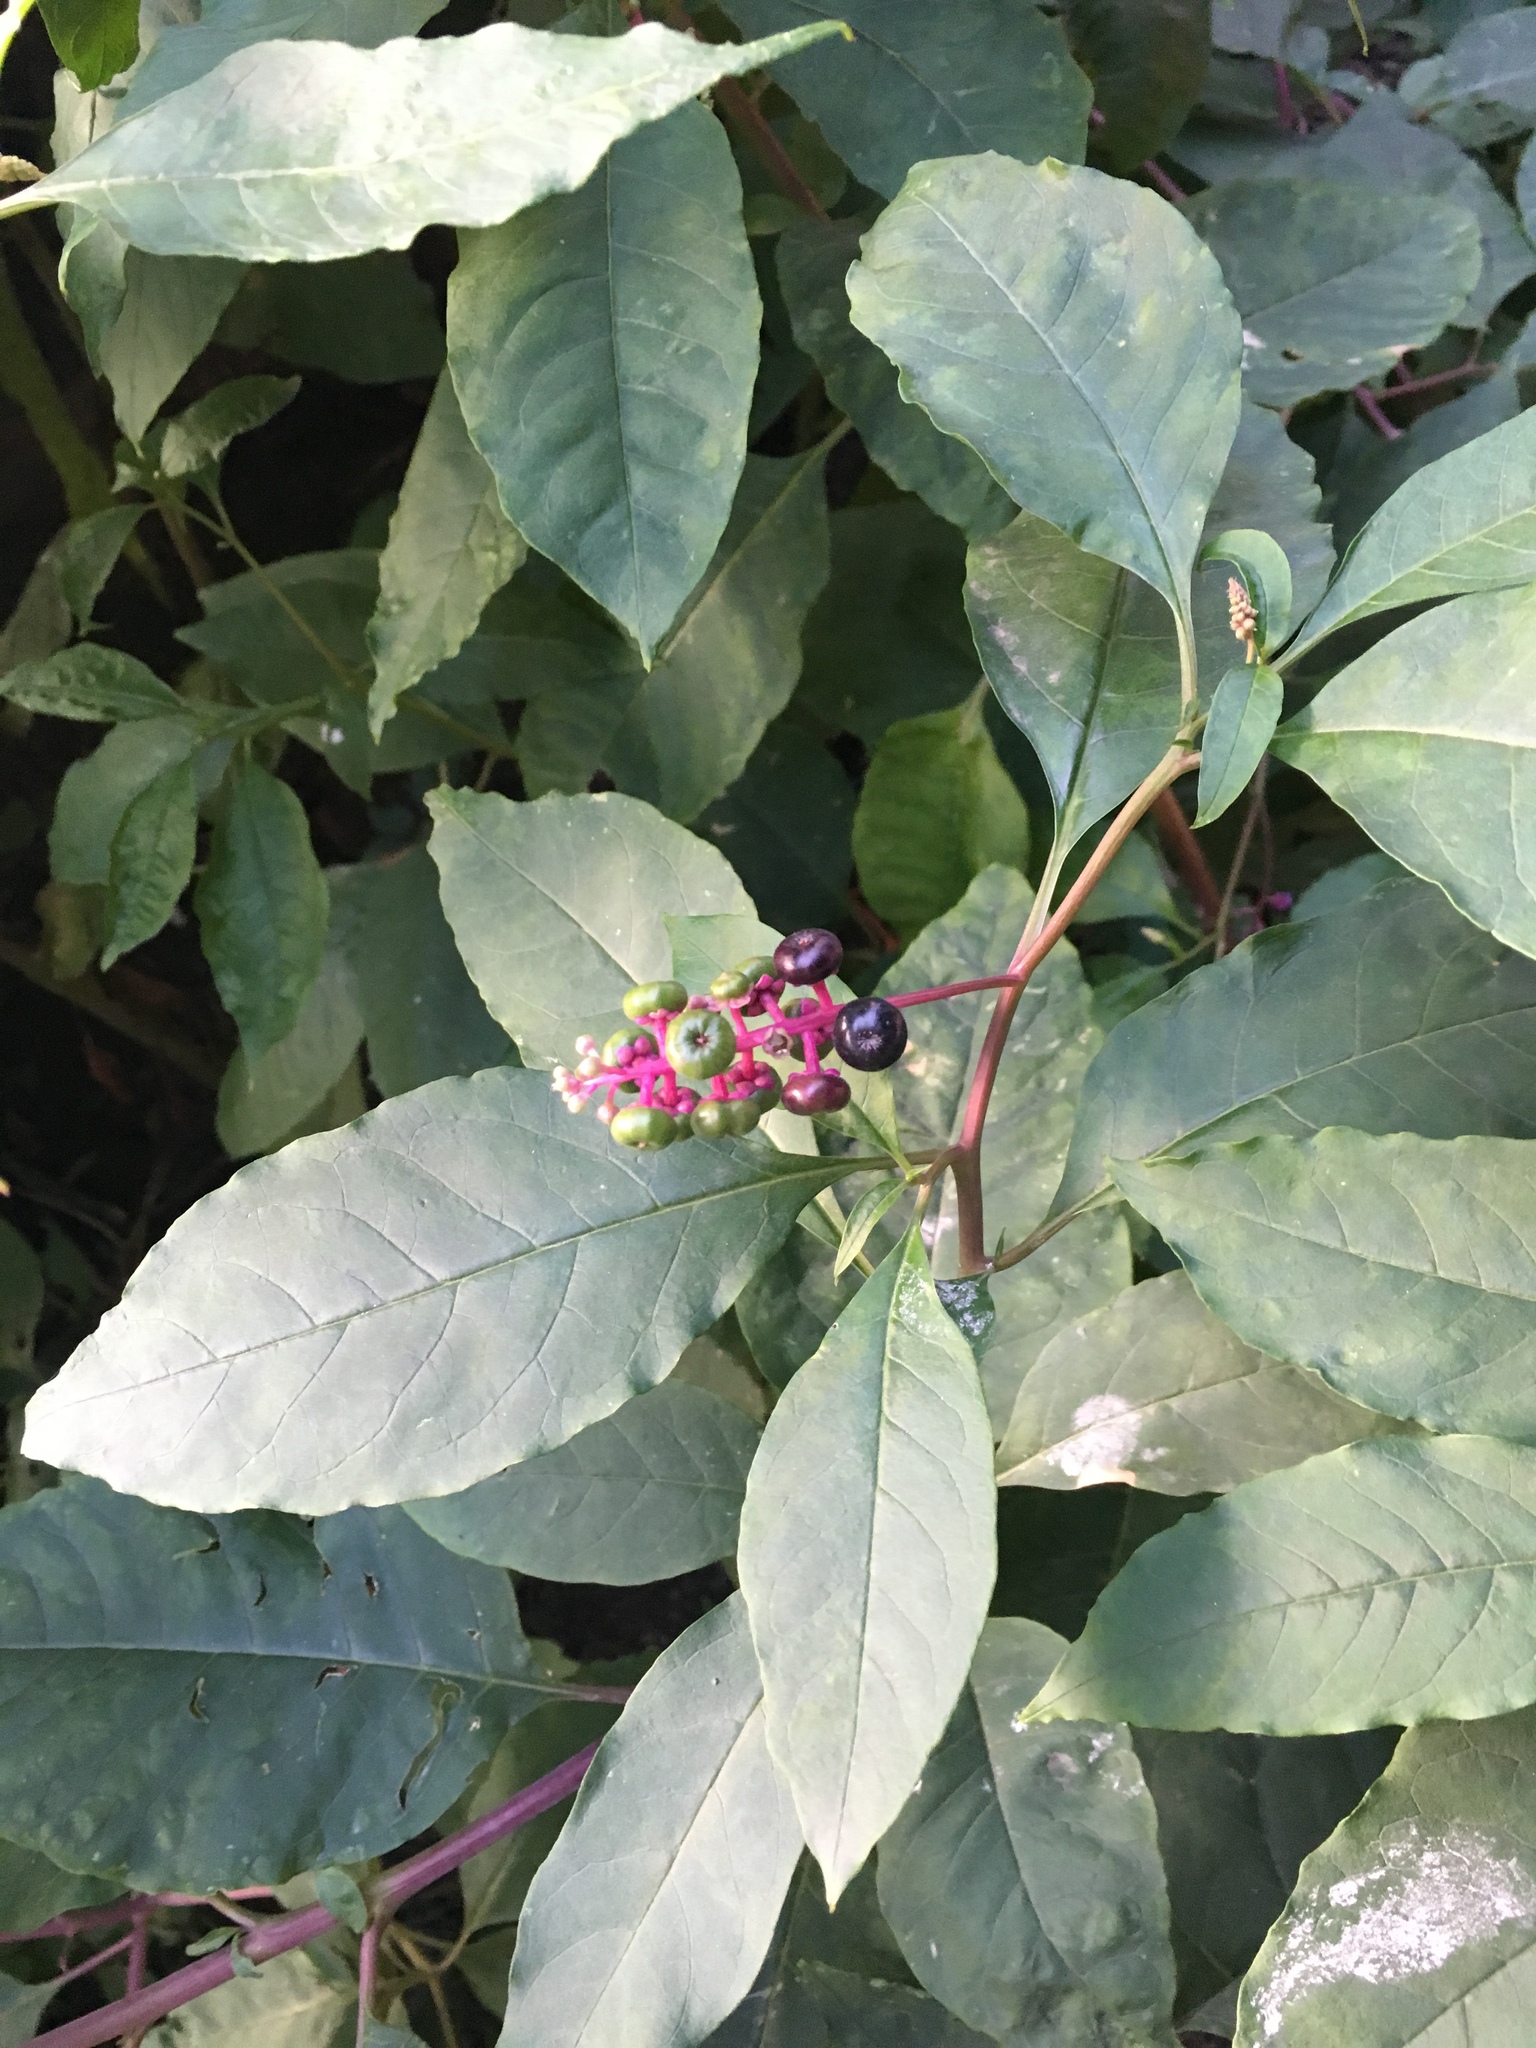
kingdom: Plantae
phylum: Tracheophyta
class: Magnoliopsida
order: Caryophyllales
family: Phytolaccaceae
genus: Phytolacca
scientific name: Phytolacca americana
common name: American pokeweed
